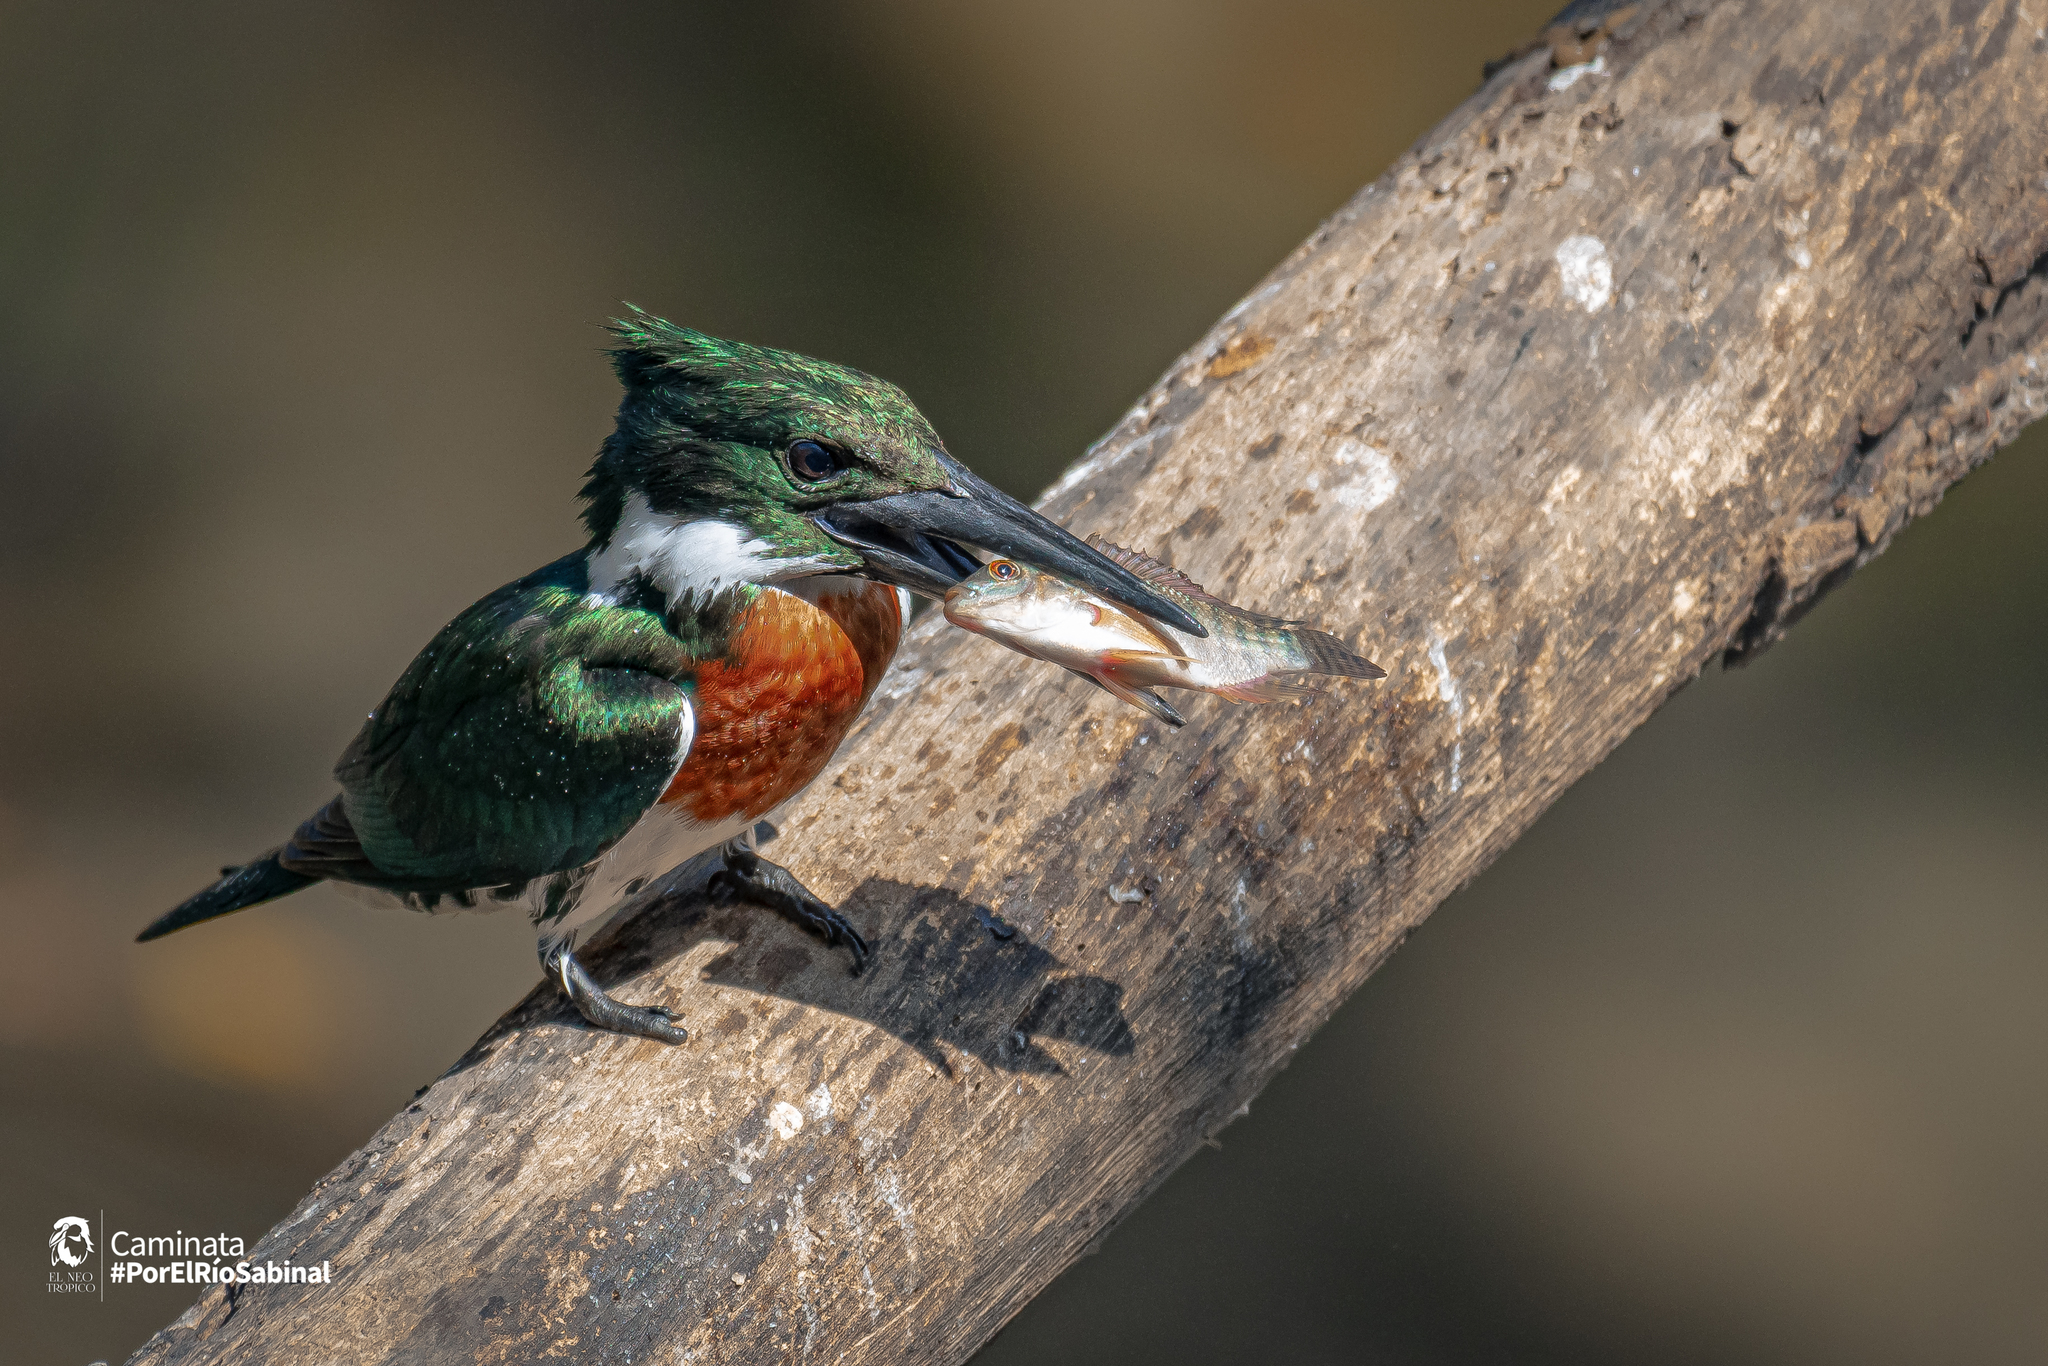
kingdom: Animalia
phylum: Chordata
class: Aves
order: Coraciiformes
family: Alcedinidae
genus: Chloroceryle
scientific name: Chloroceryle amazona
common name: Amazon kingfisher
